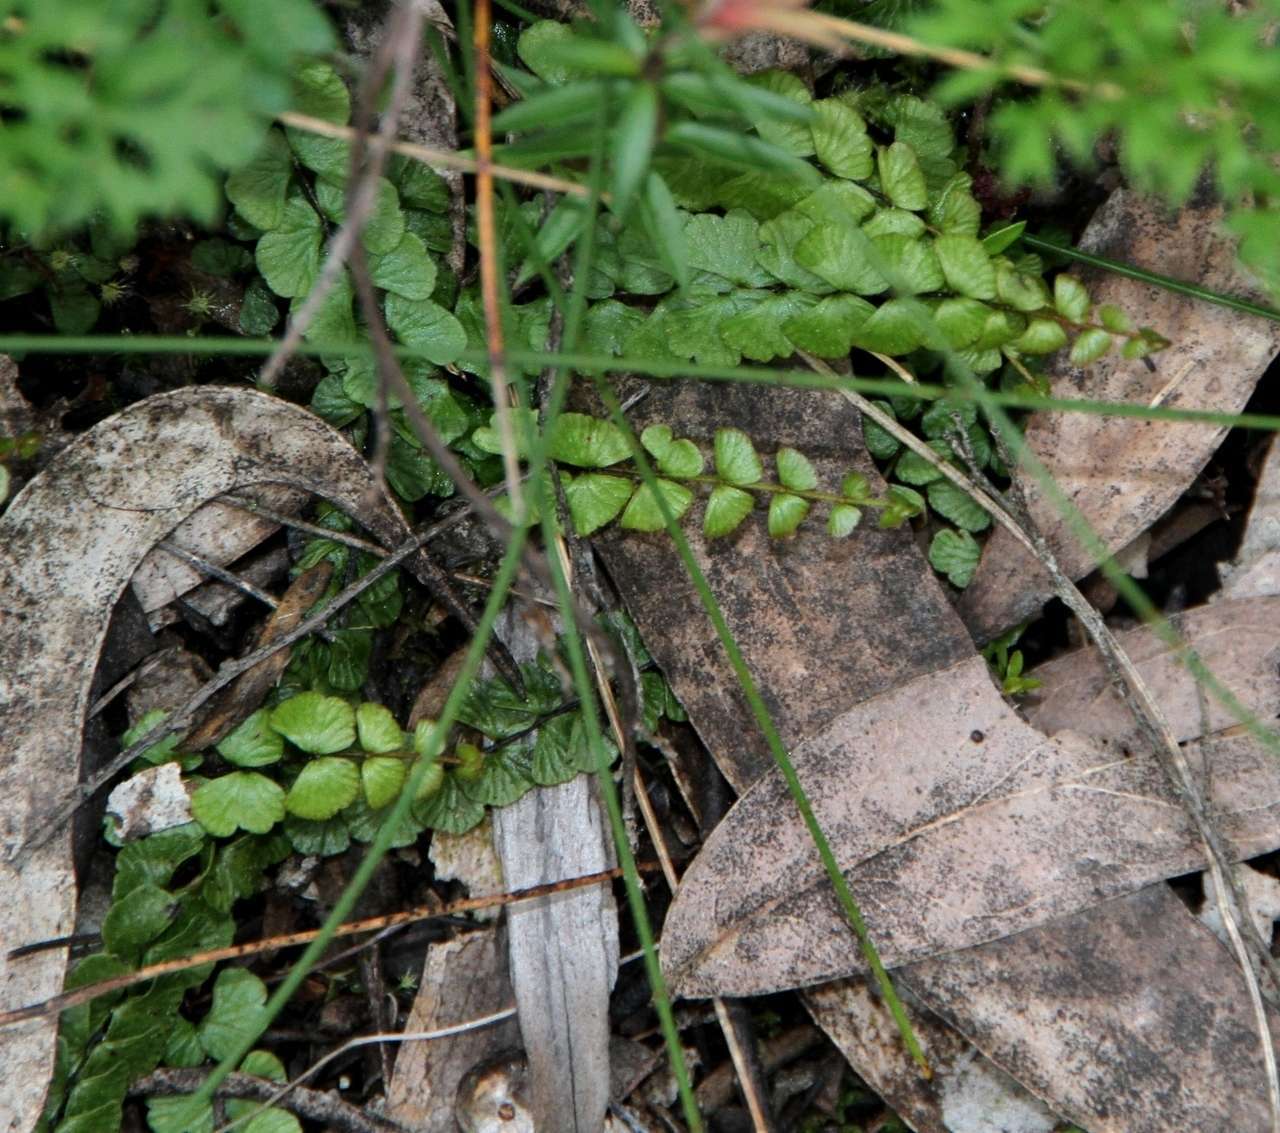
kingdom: Plantae
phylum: Tracheophyta
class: Polypodiopsida
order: Polypodiales
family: Lindsaeaceae
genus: Lindsaea
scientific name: Lindsaea linearis
